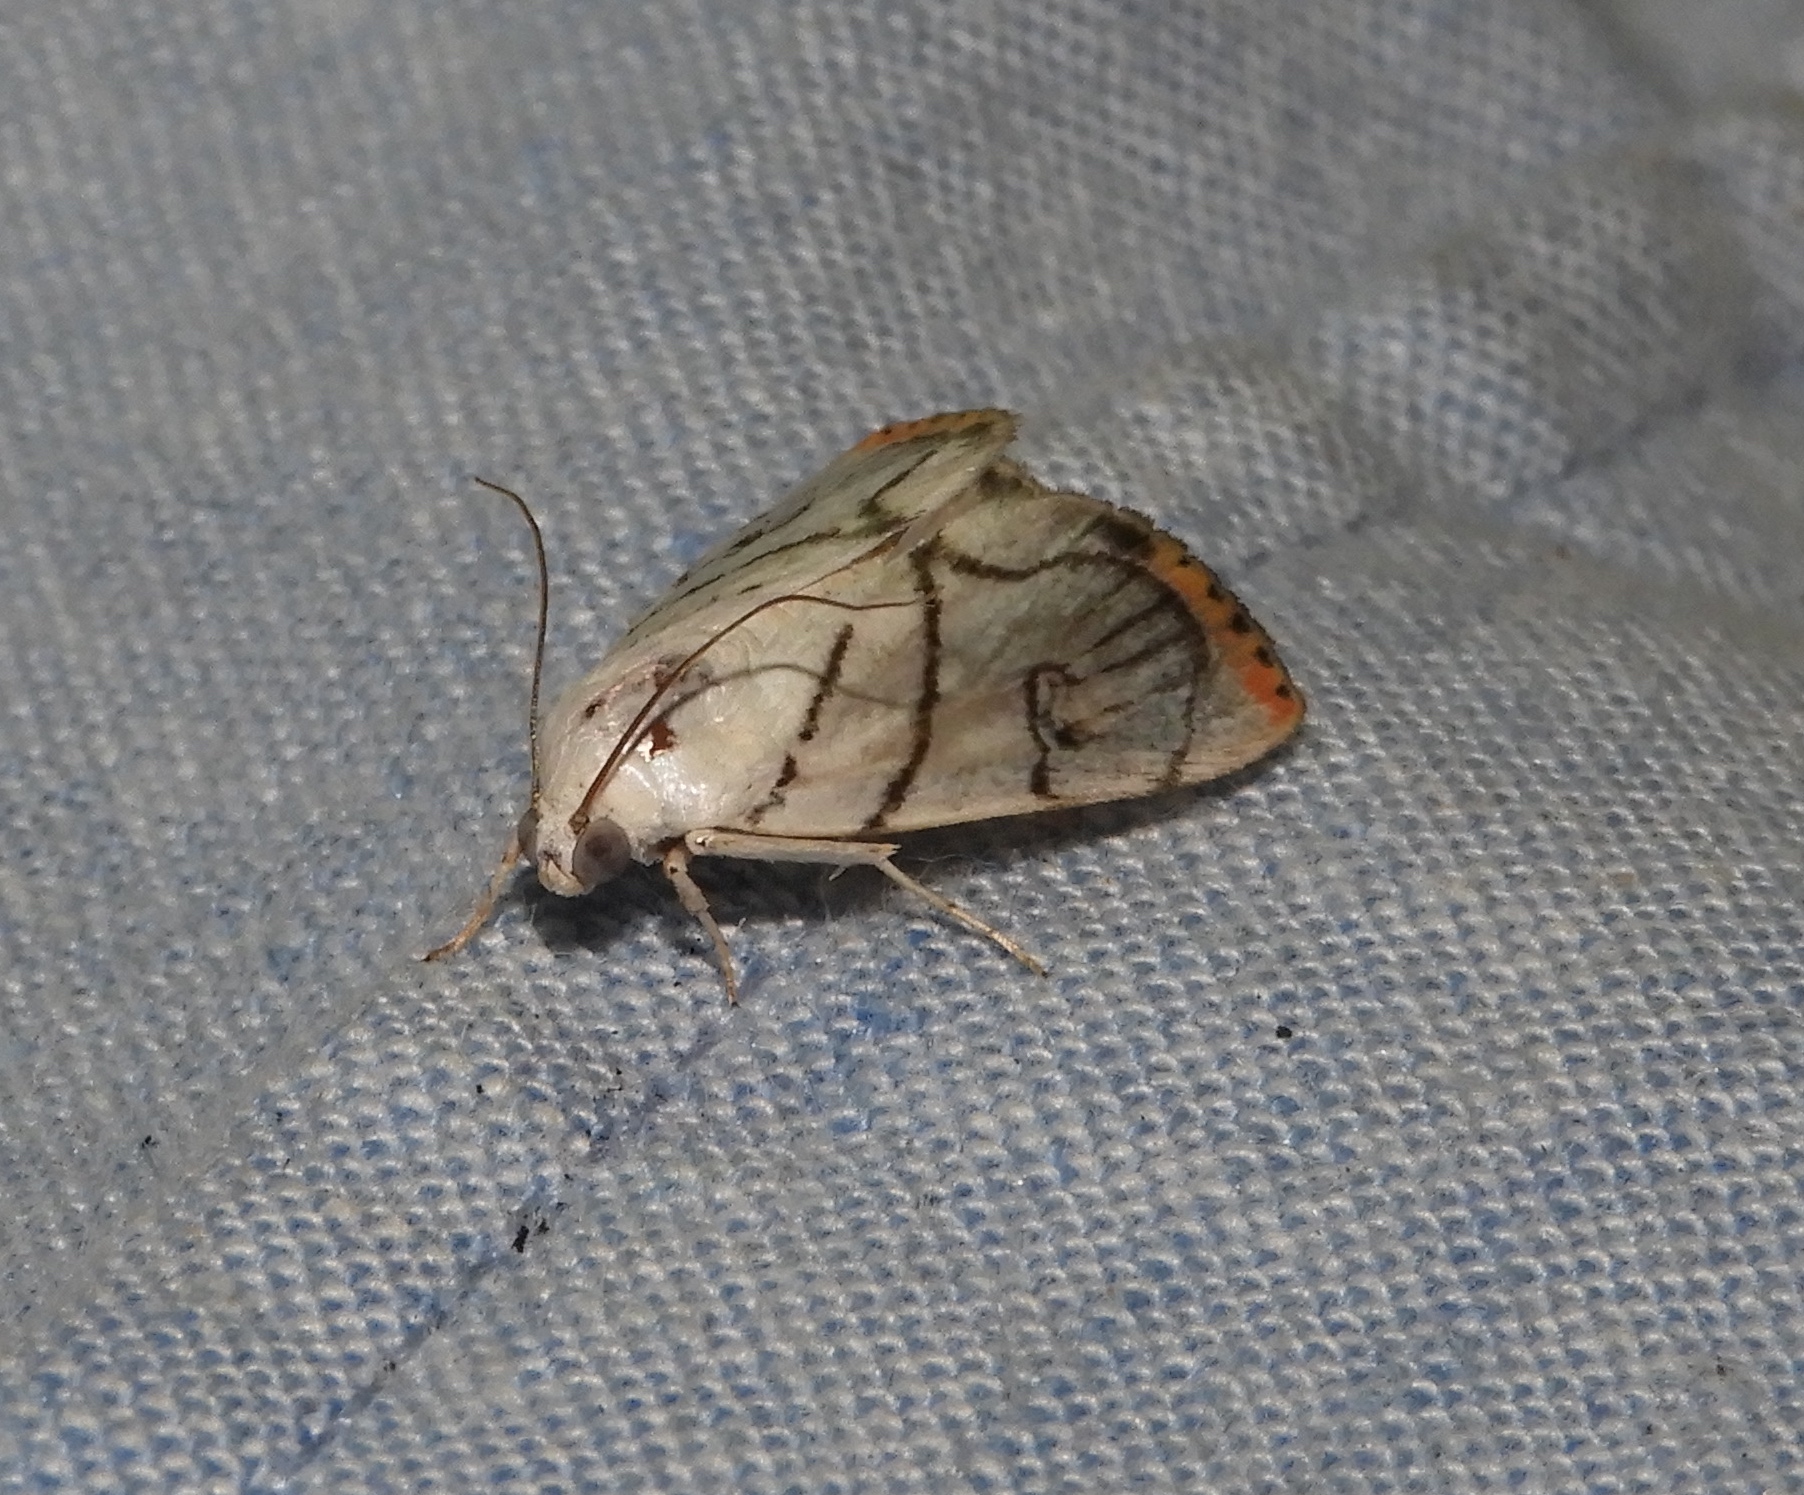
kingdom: Animalia
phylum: Arthropoda
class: Insecta
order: Lepidoptera
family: Crambidae
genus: Dichogama
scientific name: Dichogama gudmanni
